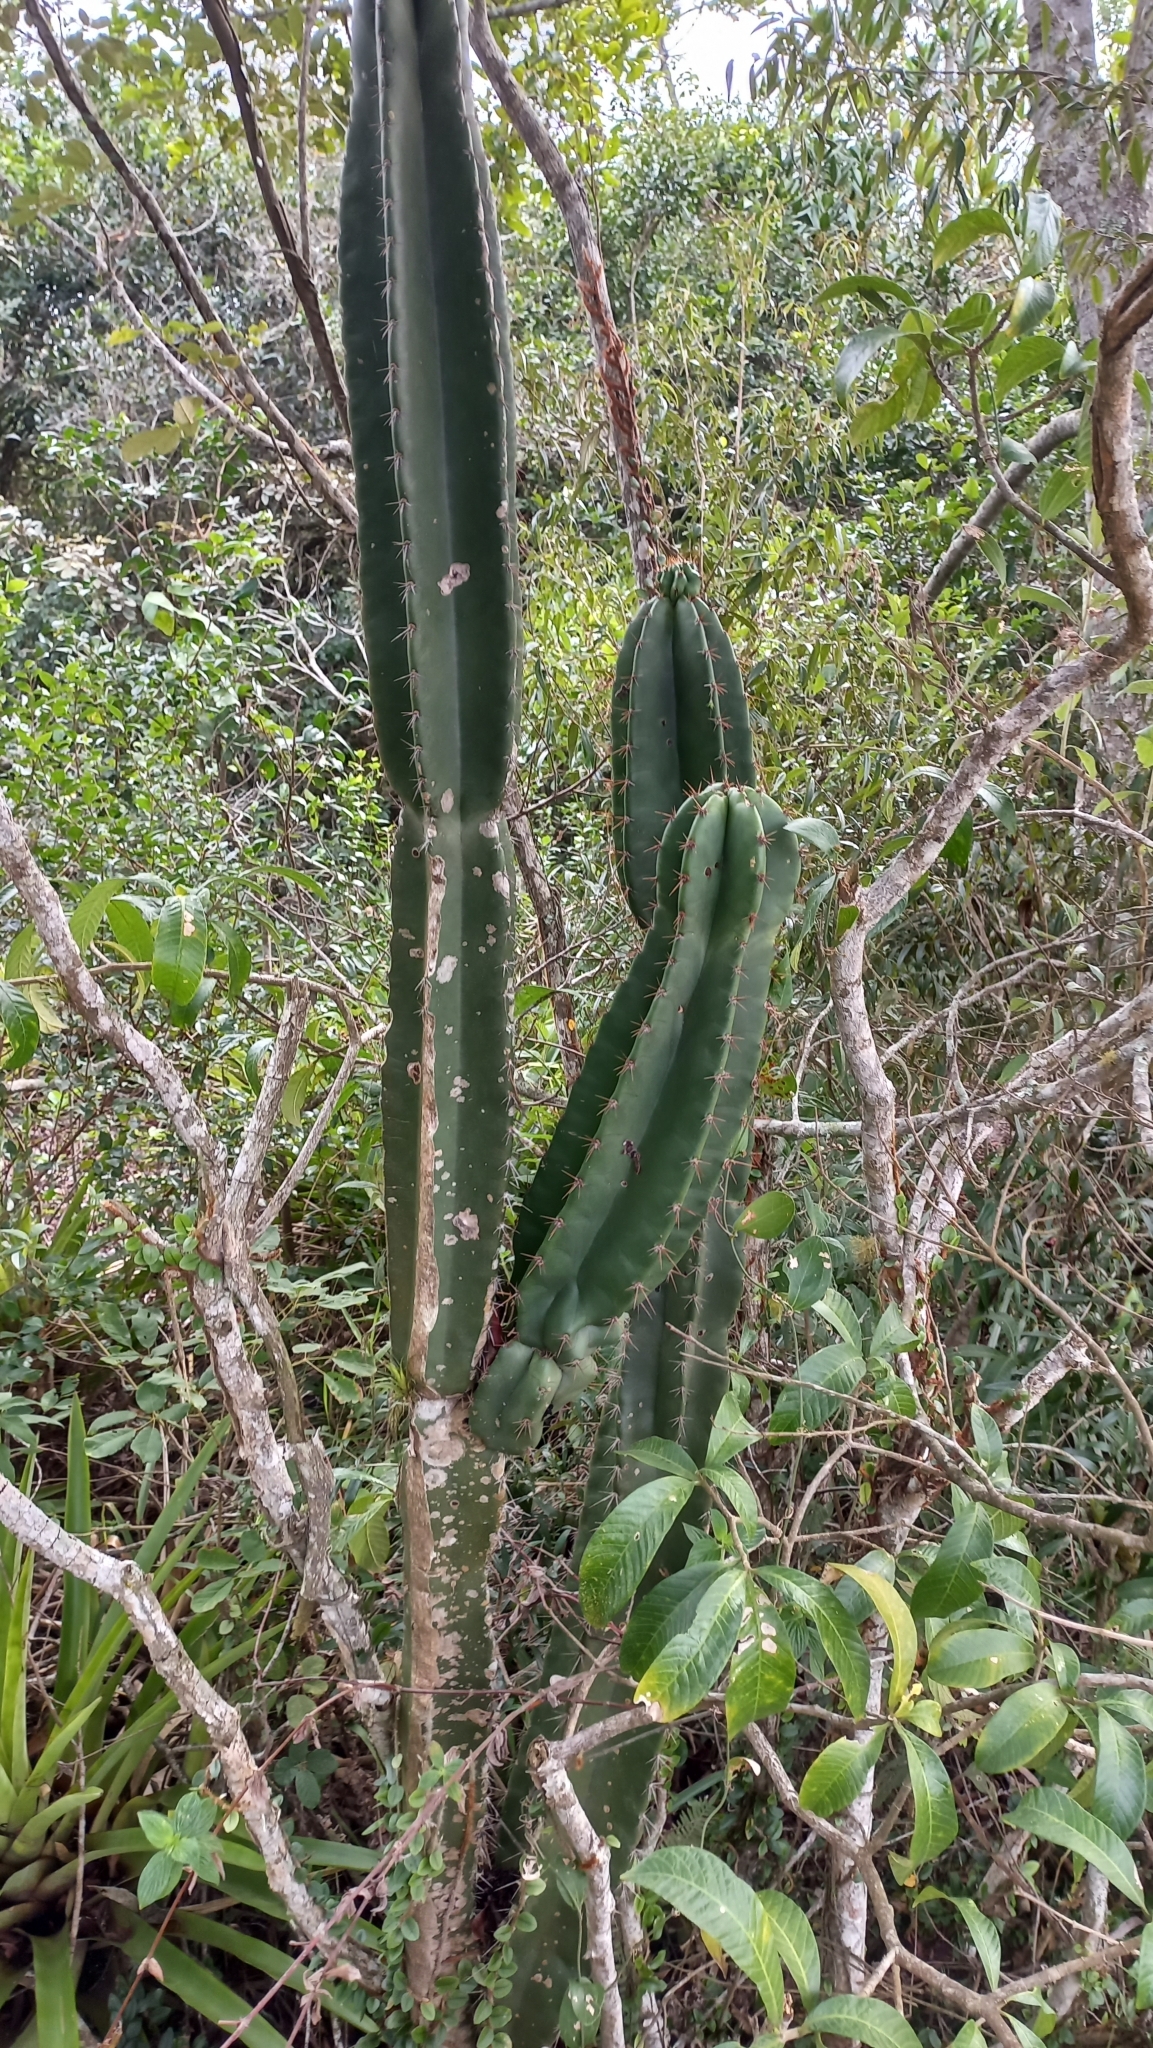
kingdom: Plantae
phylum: Tracheophyta
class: Magnoliopsida
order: Caryophyllales
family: Cactaceae
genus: Cereus
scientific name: Cereus hildmannianus
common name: Hedge cactus
